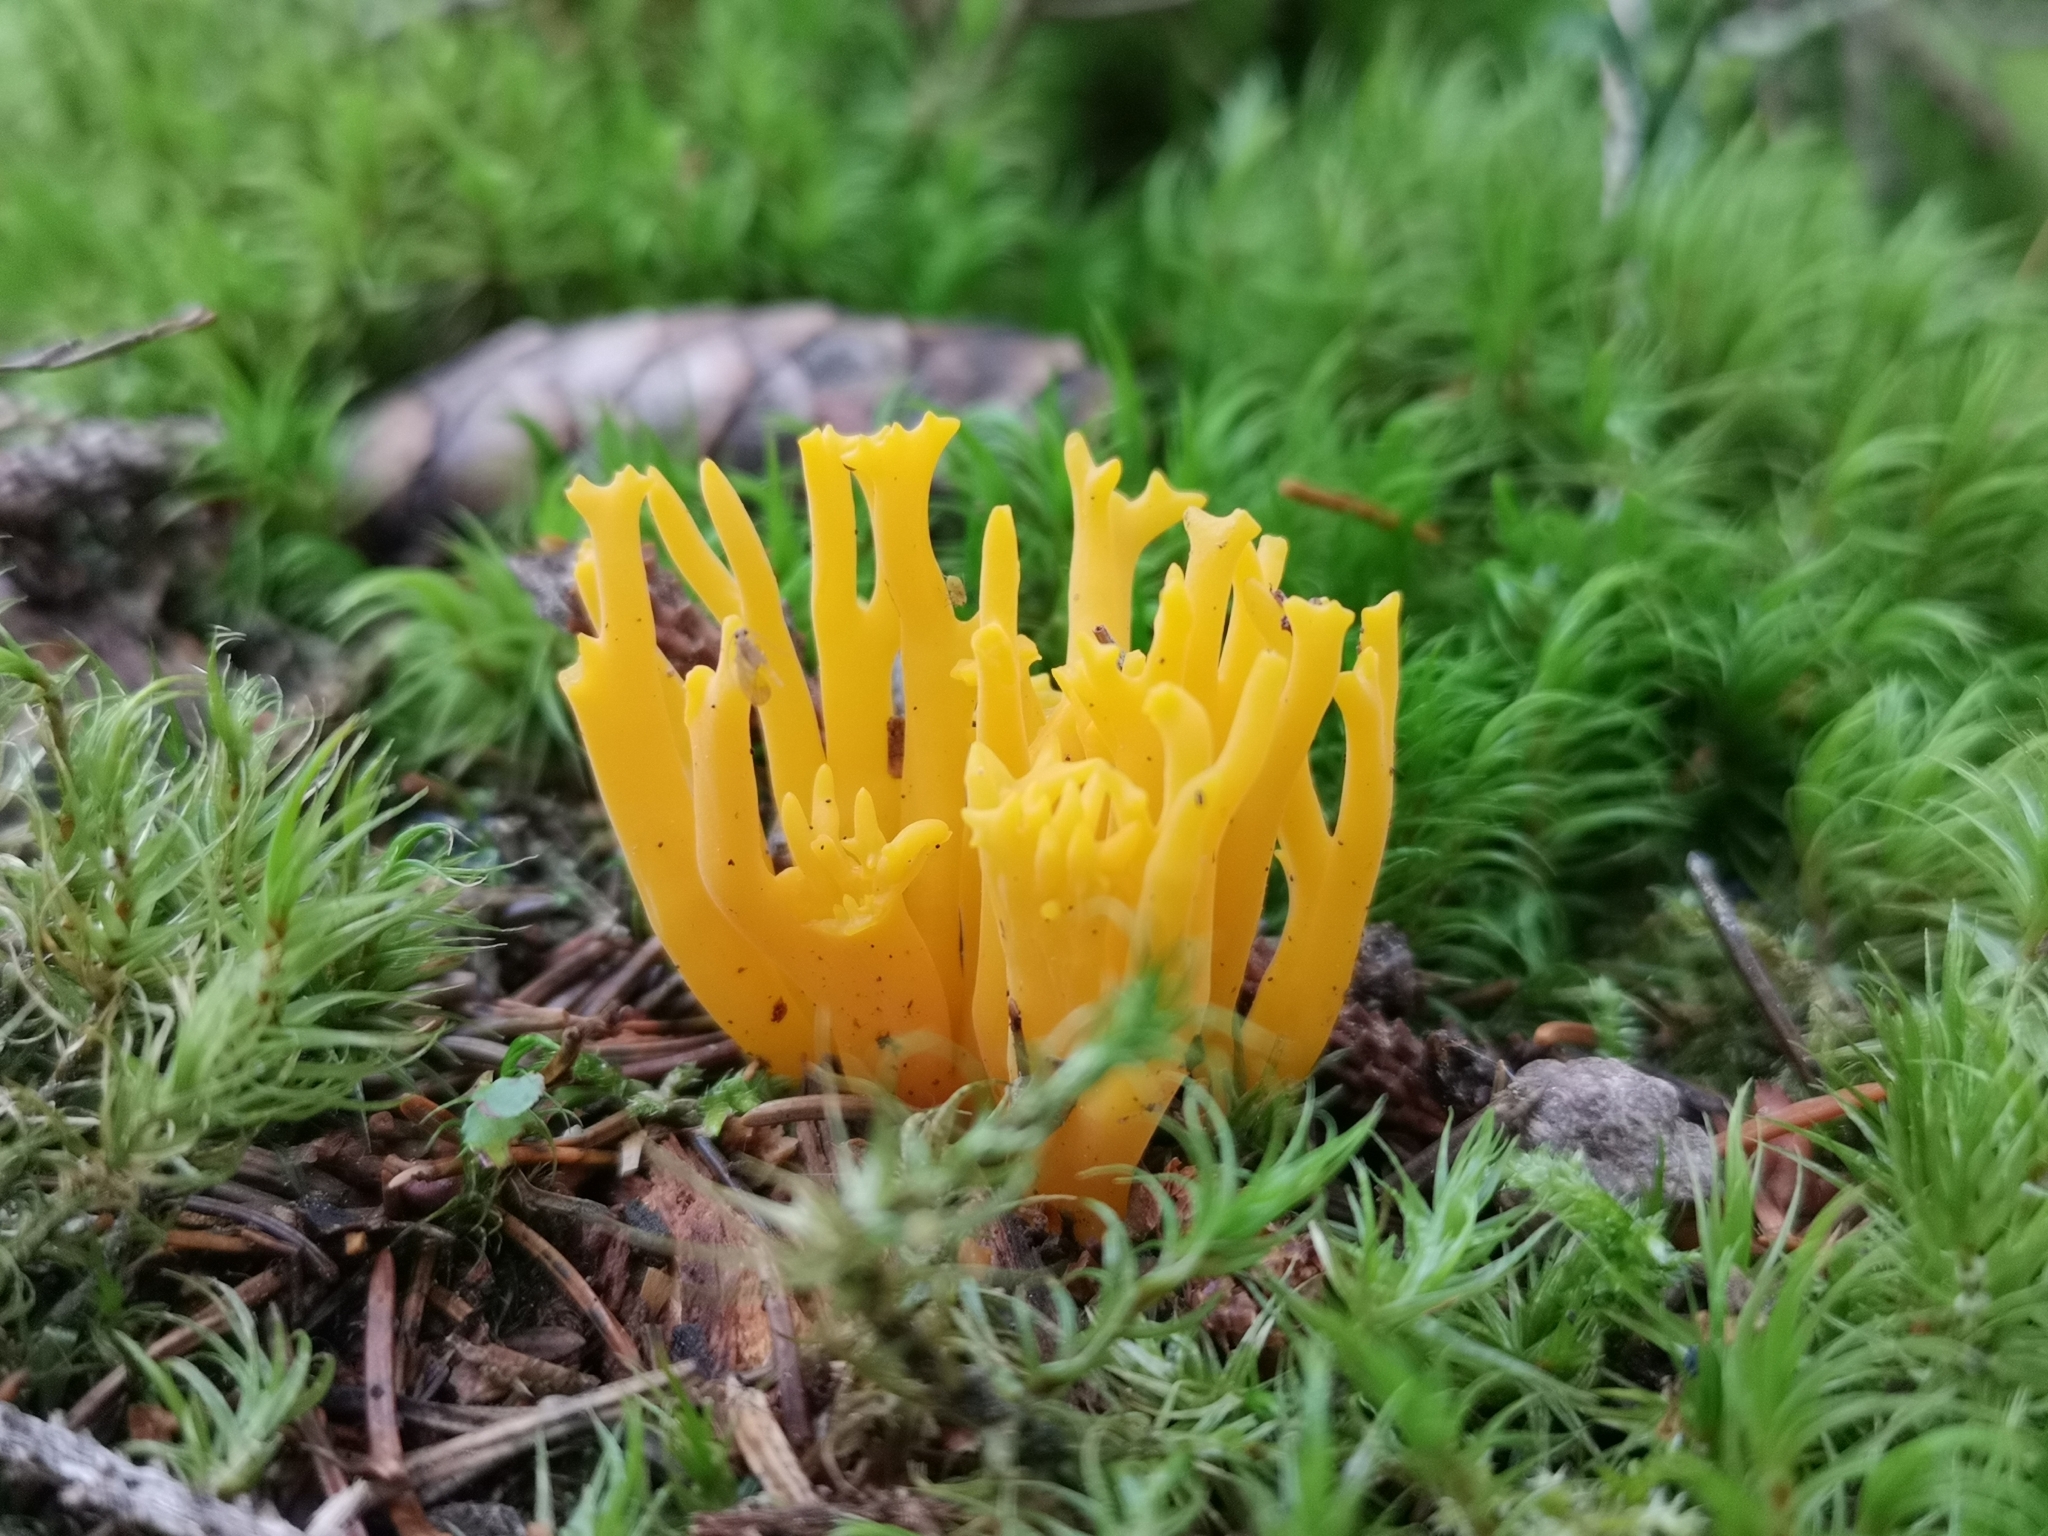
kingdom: Fungi
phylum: Basidiomycota
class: Dacrymycetes
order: Dacrymycetales
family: Dacrymycetaceae
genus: Calocera
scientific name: Calocera viscosa
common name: Yellow stagshorn
